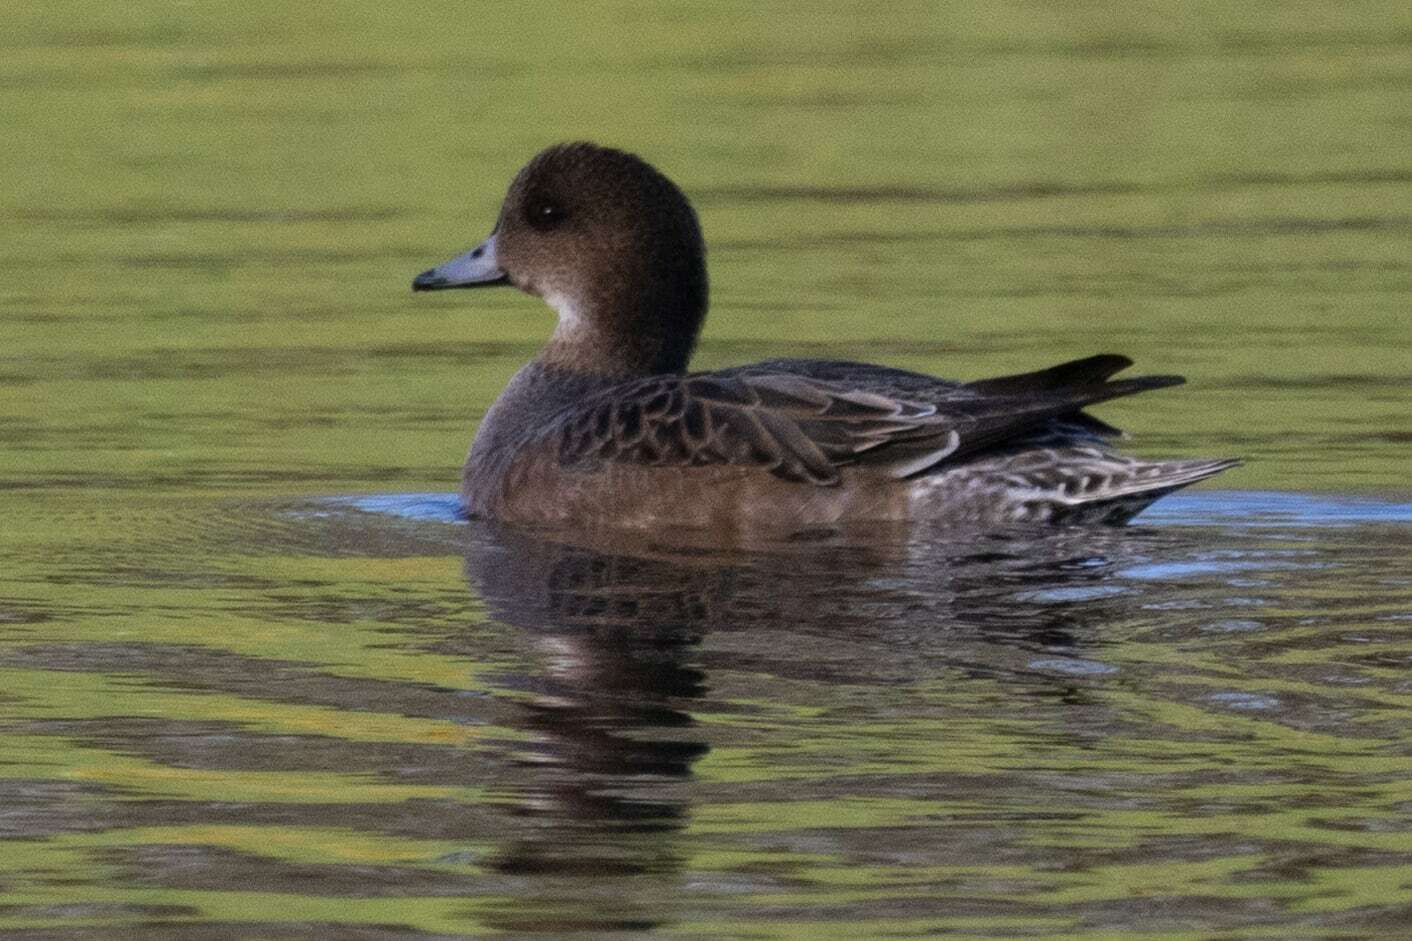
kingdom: Animalia
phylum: Chordata
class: Aves
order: Anseriformes
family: Anatidae
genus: Mareca
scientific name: Mareca penelope
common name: Eurasian wigeon
